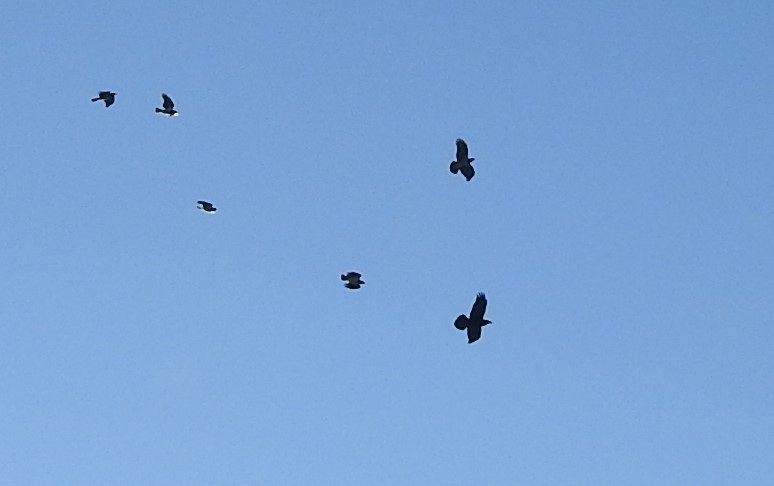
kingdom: Animalia
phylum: Chordata
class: Aves
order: Passeriformes
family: Corvidae
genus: Corvus
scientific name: Corvus corax
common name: Common raven
